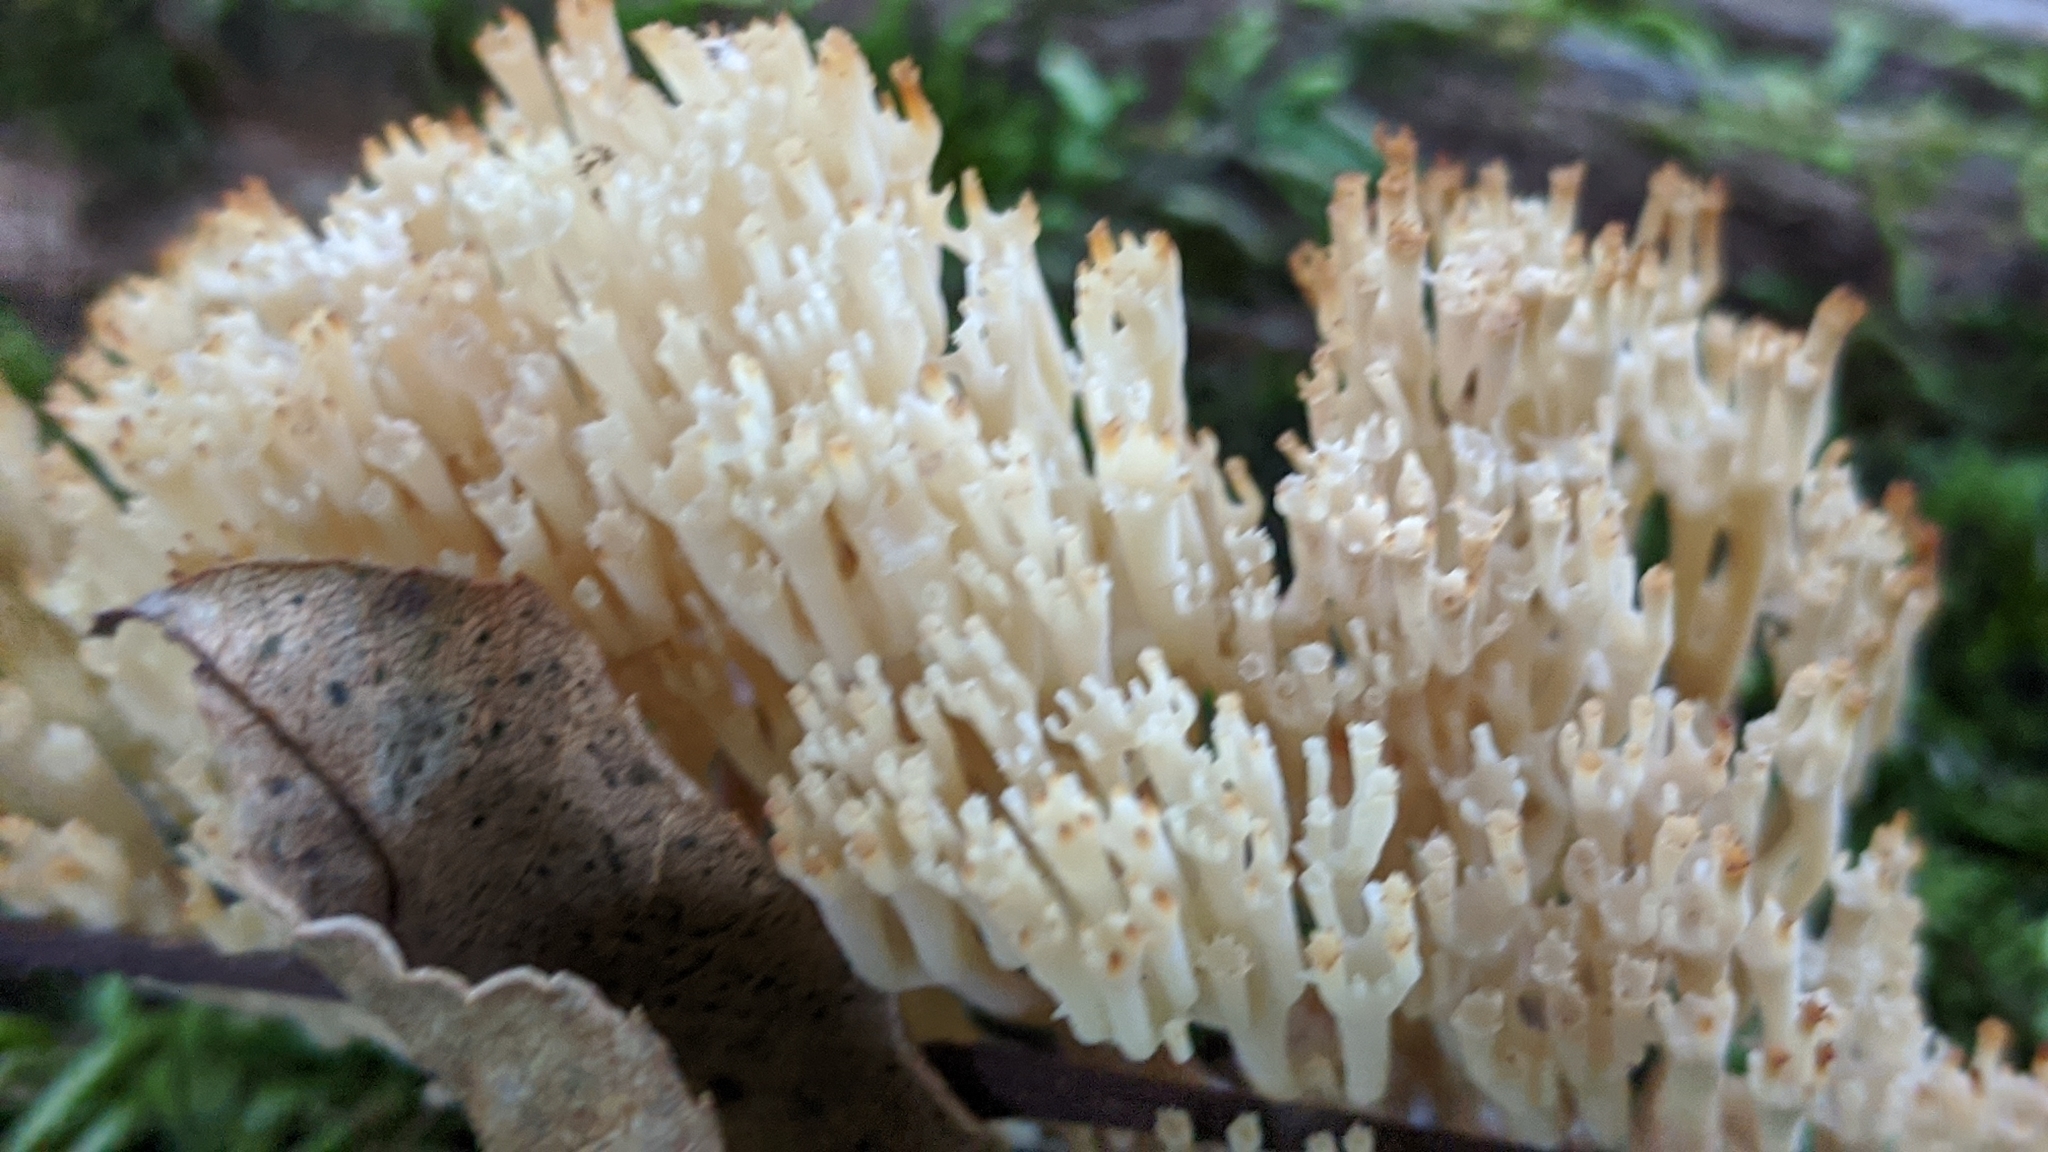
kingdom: Fungi
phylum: Basidiomycota
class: Agaricomycetes
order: Russulales
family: Auriscalpiaceae
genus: Artomyces
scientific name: Artomyces pyxidatus
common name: Crown-tipped coral fungus
